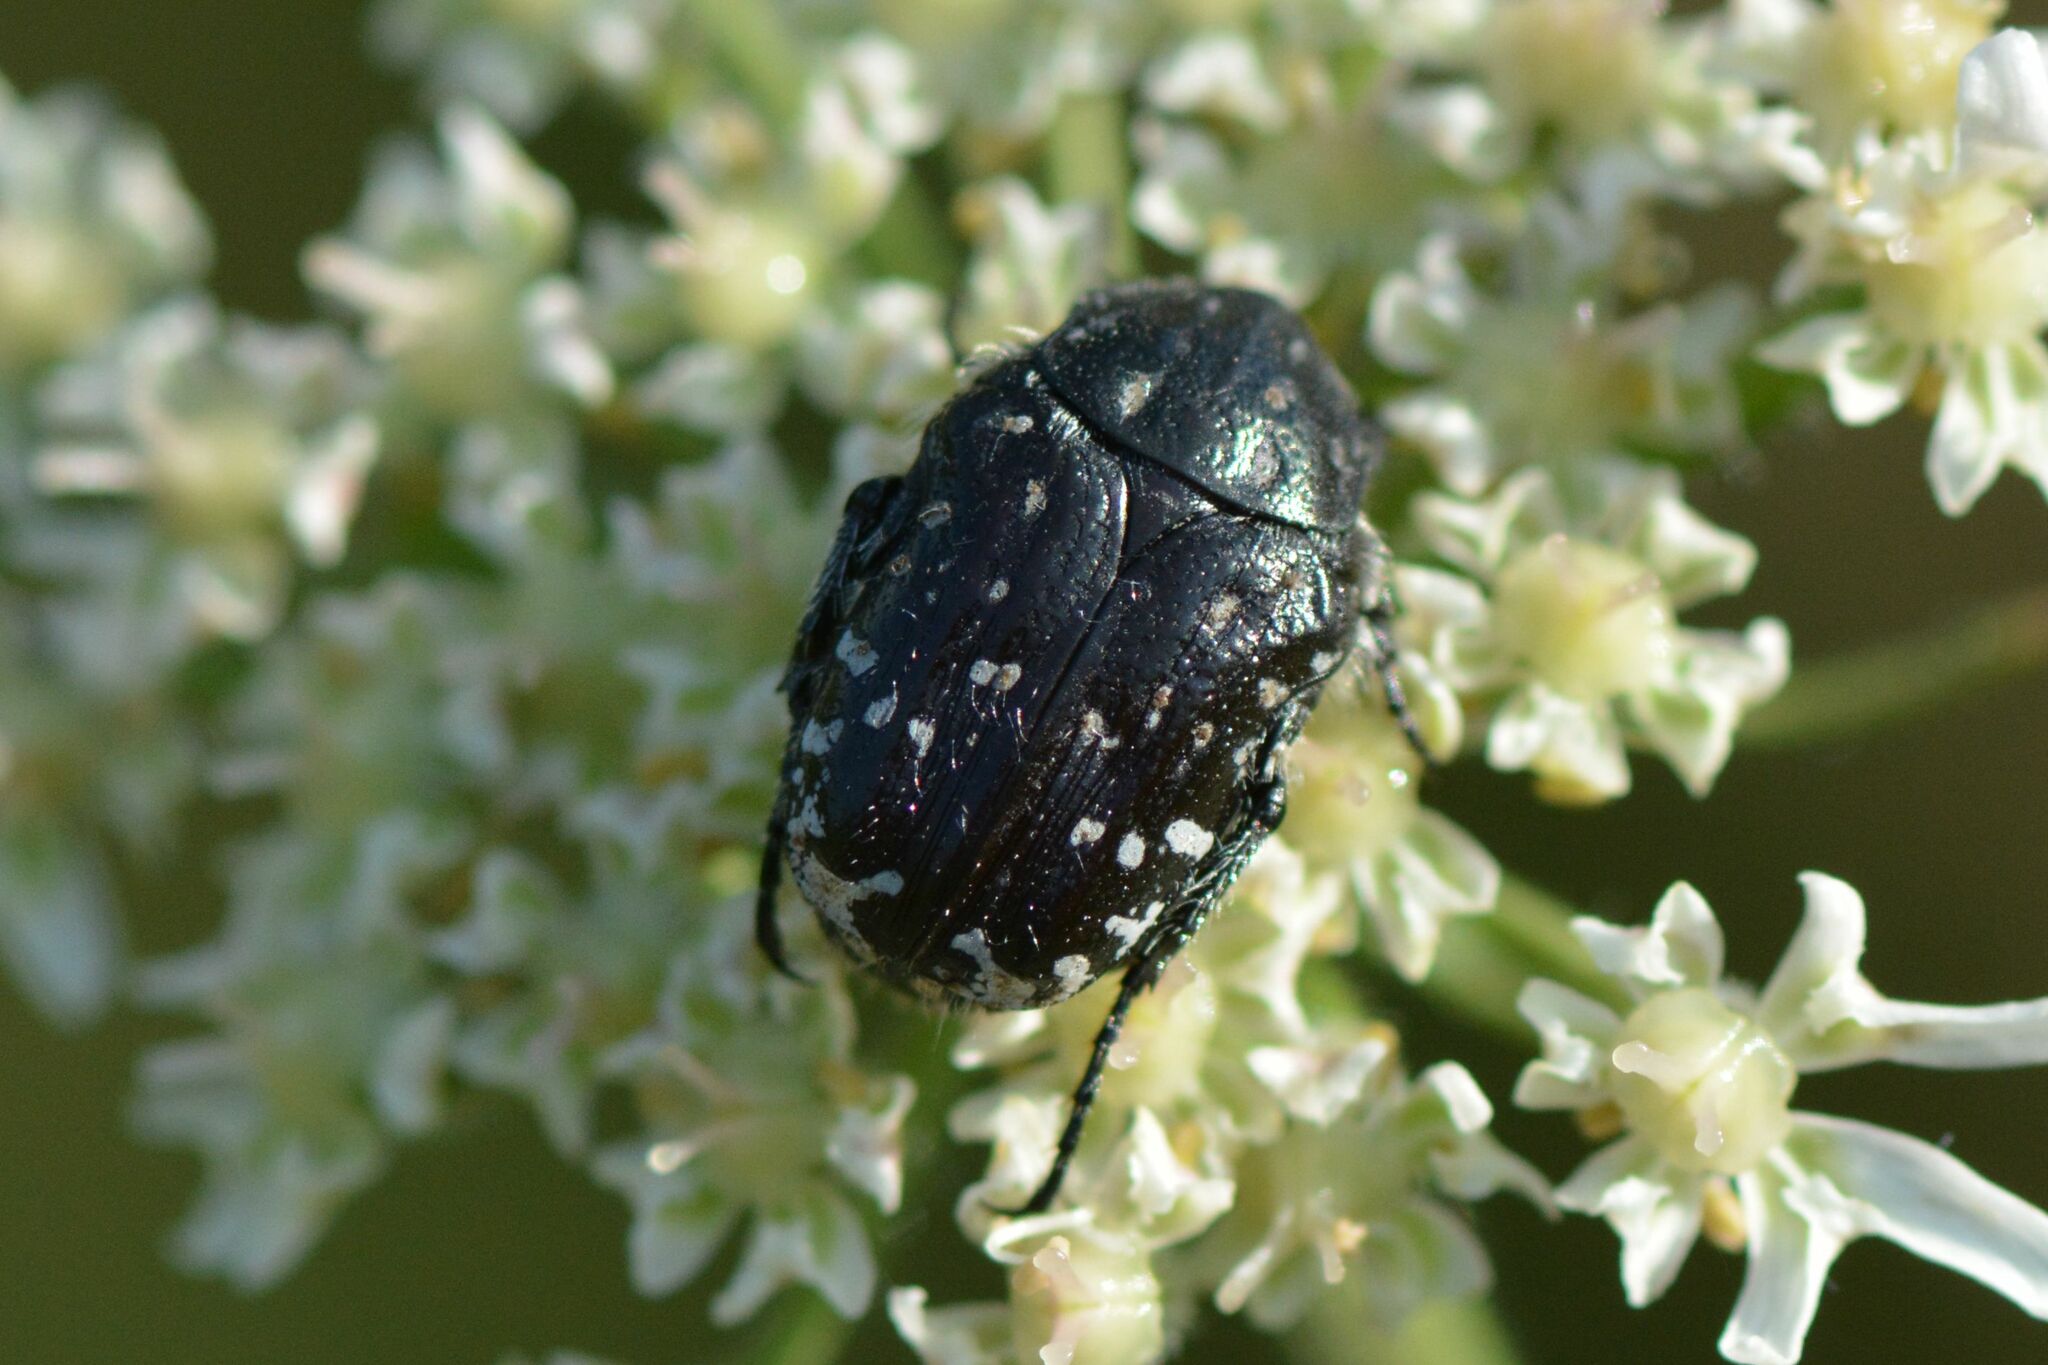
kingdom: Animalia
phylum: Arthropoda
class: Insecta
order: Coleoptera
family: Scarabaeidae
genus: Oxythyrea
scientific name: Oxythyrea funesta
